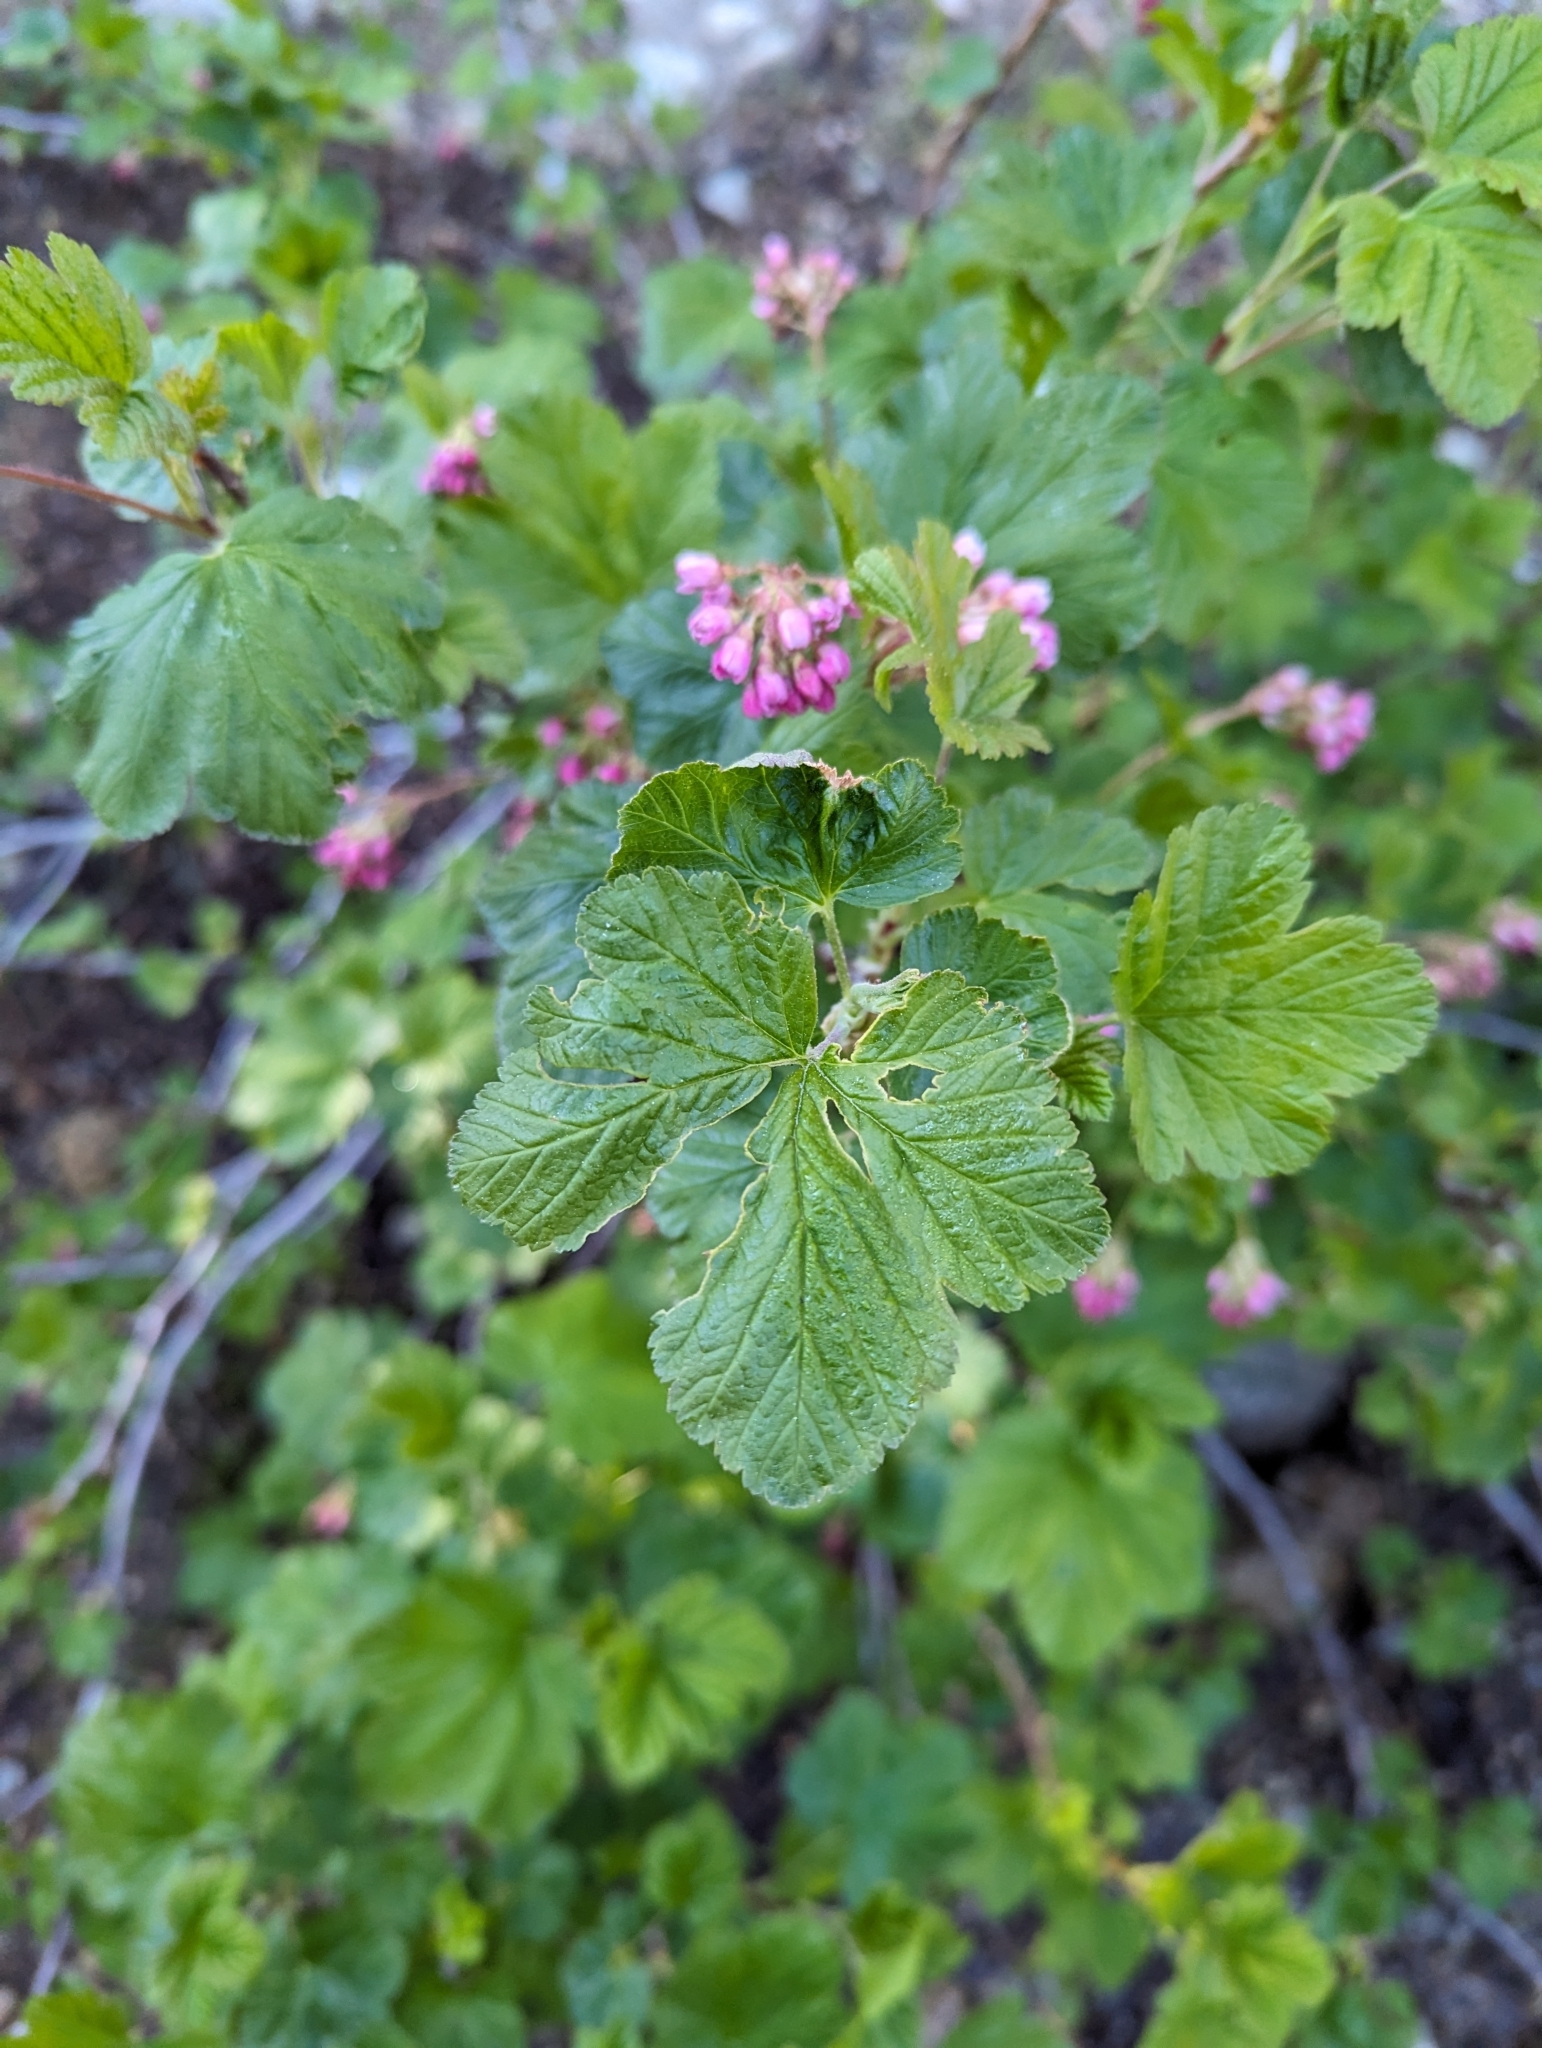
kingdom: Plantae
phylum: Tracheophyta
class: Magnoliopsida
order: Saxifragales
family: Grossulariaceae
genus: Ribes
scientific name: Ribes nevadense
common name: Mountain pink currant
